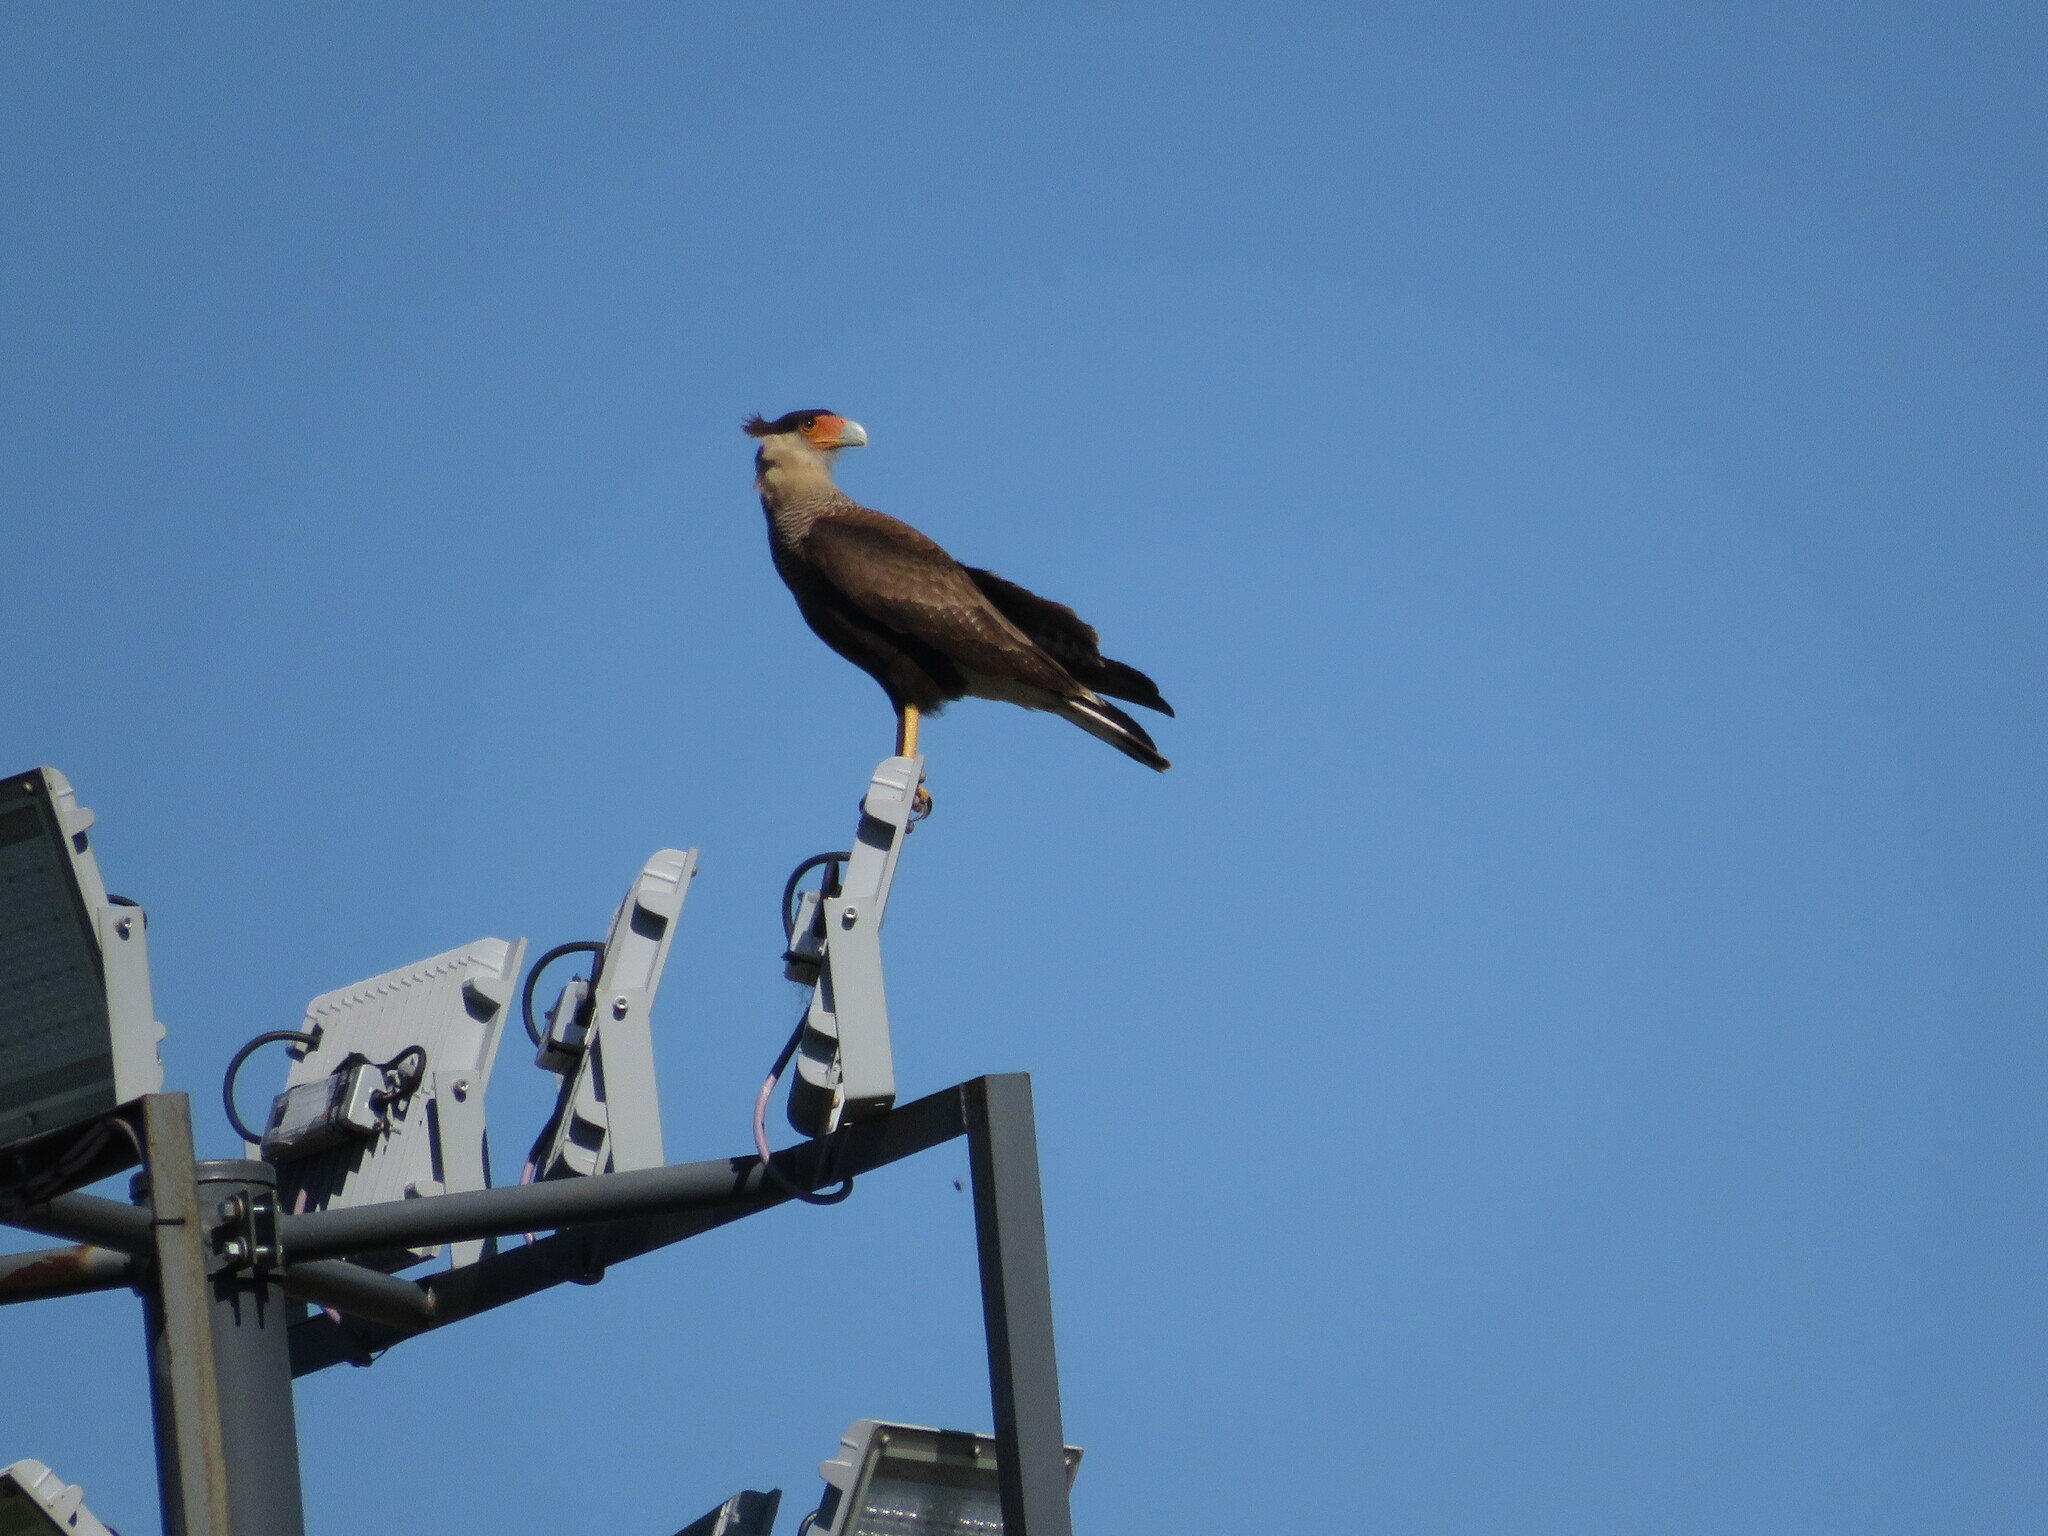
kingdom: Animalia
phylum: Chordata
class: Aves
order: Falconiformes
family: Falconidae
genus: Caracara
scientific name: Caracara plancus
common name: Southern caracara
